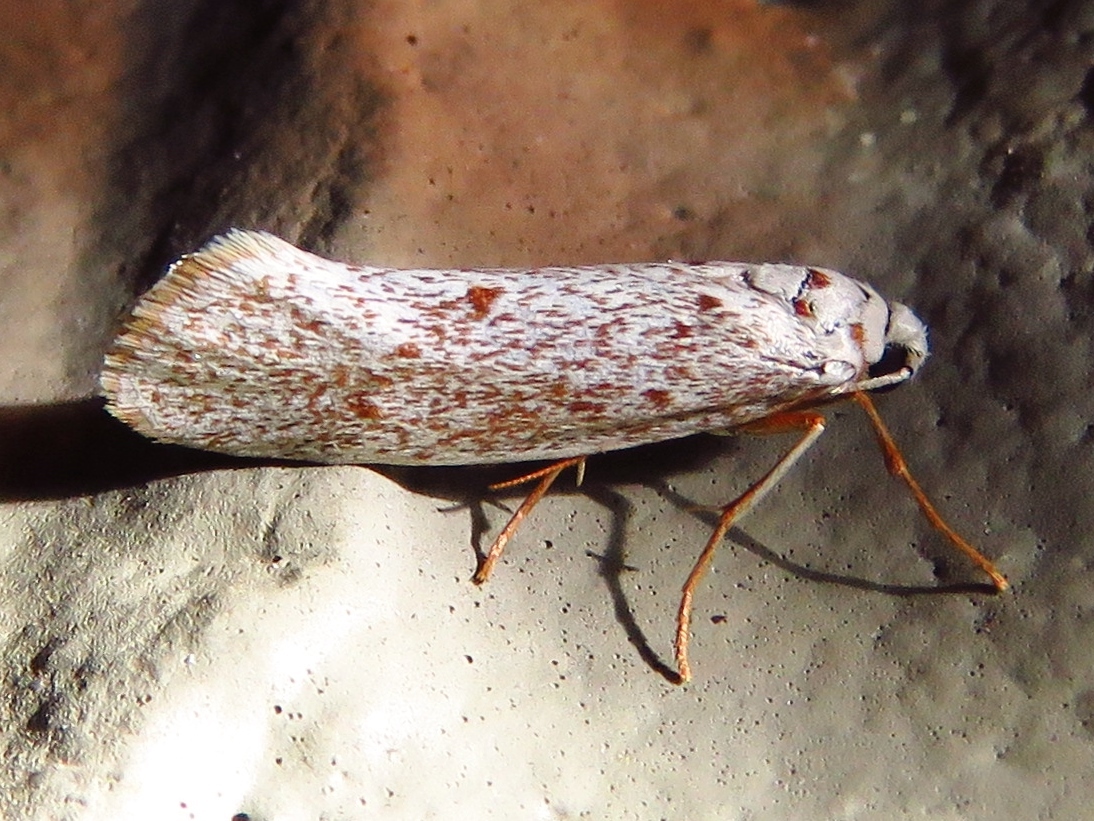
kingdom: Animalia
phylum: Arthropoda
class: Insecta
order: Lepidoptera
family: Lacturidae
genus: Lactura
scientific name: Lactura
